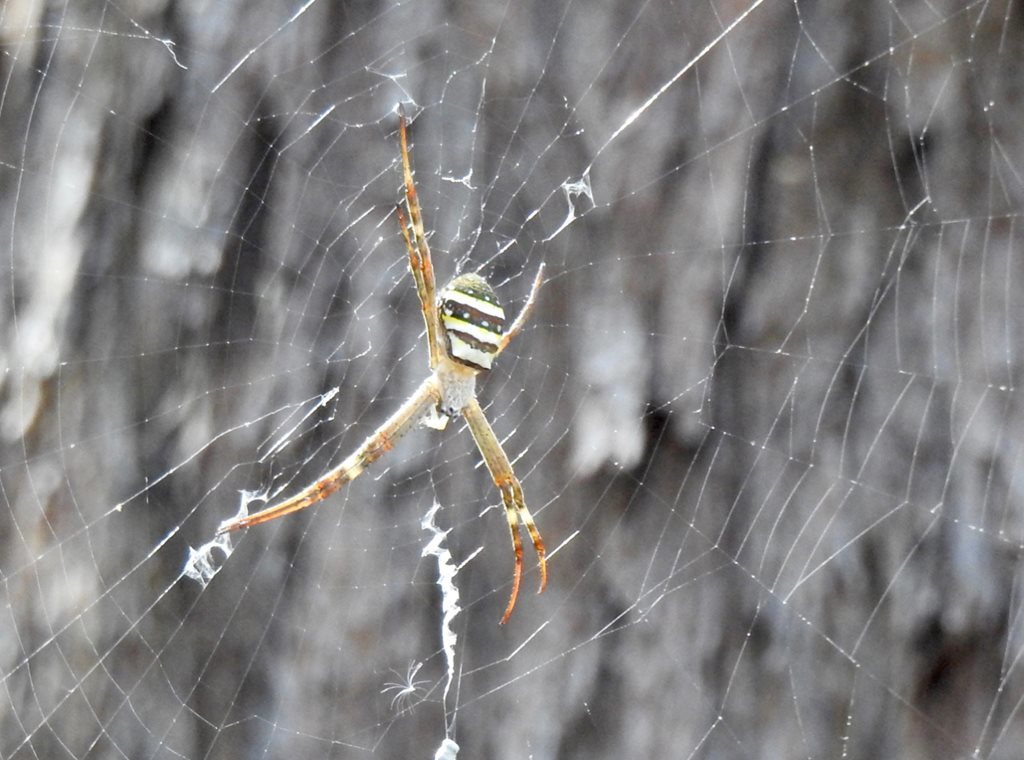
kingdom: Animalia
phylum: Arthropoda
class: Arachnida
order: Araneae
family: Araneidae
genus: Argiope
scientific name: Argiope keyserlingi
